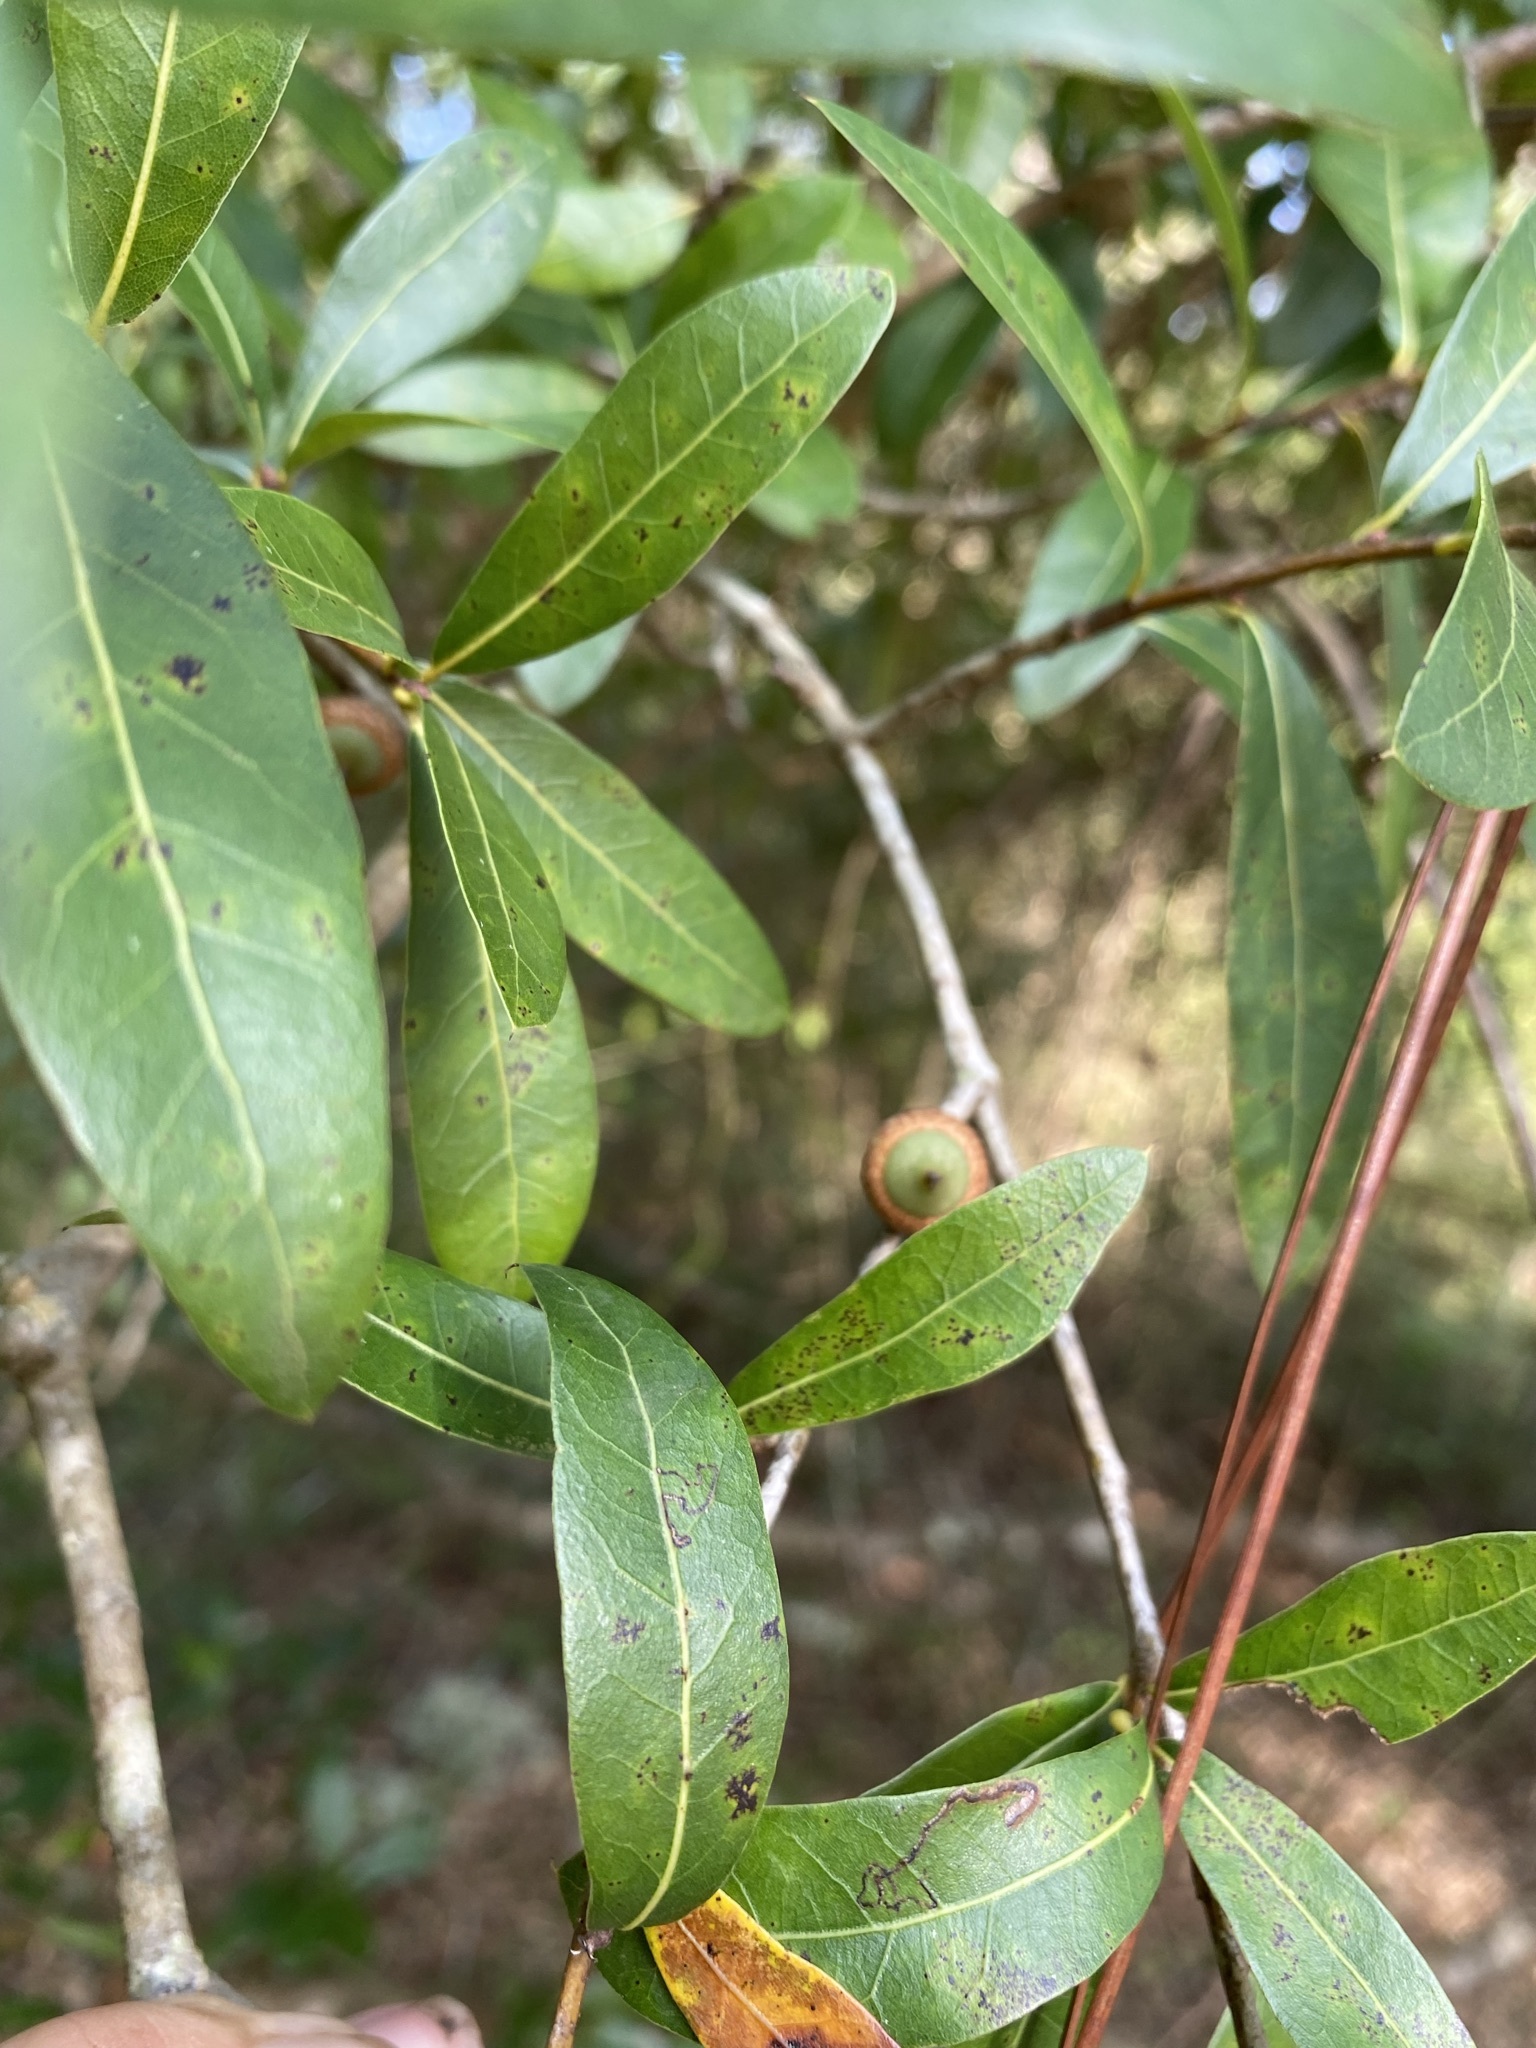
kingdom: Plantae
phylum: Tracheophyta
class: Magnoliopsida
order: Fagales
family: Fagaceae
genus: Quercus
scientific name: Quercus hemisphaerica
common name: Darlington oak
